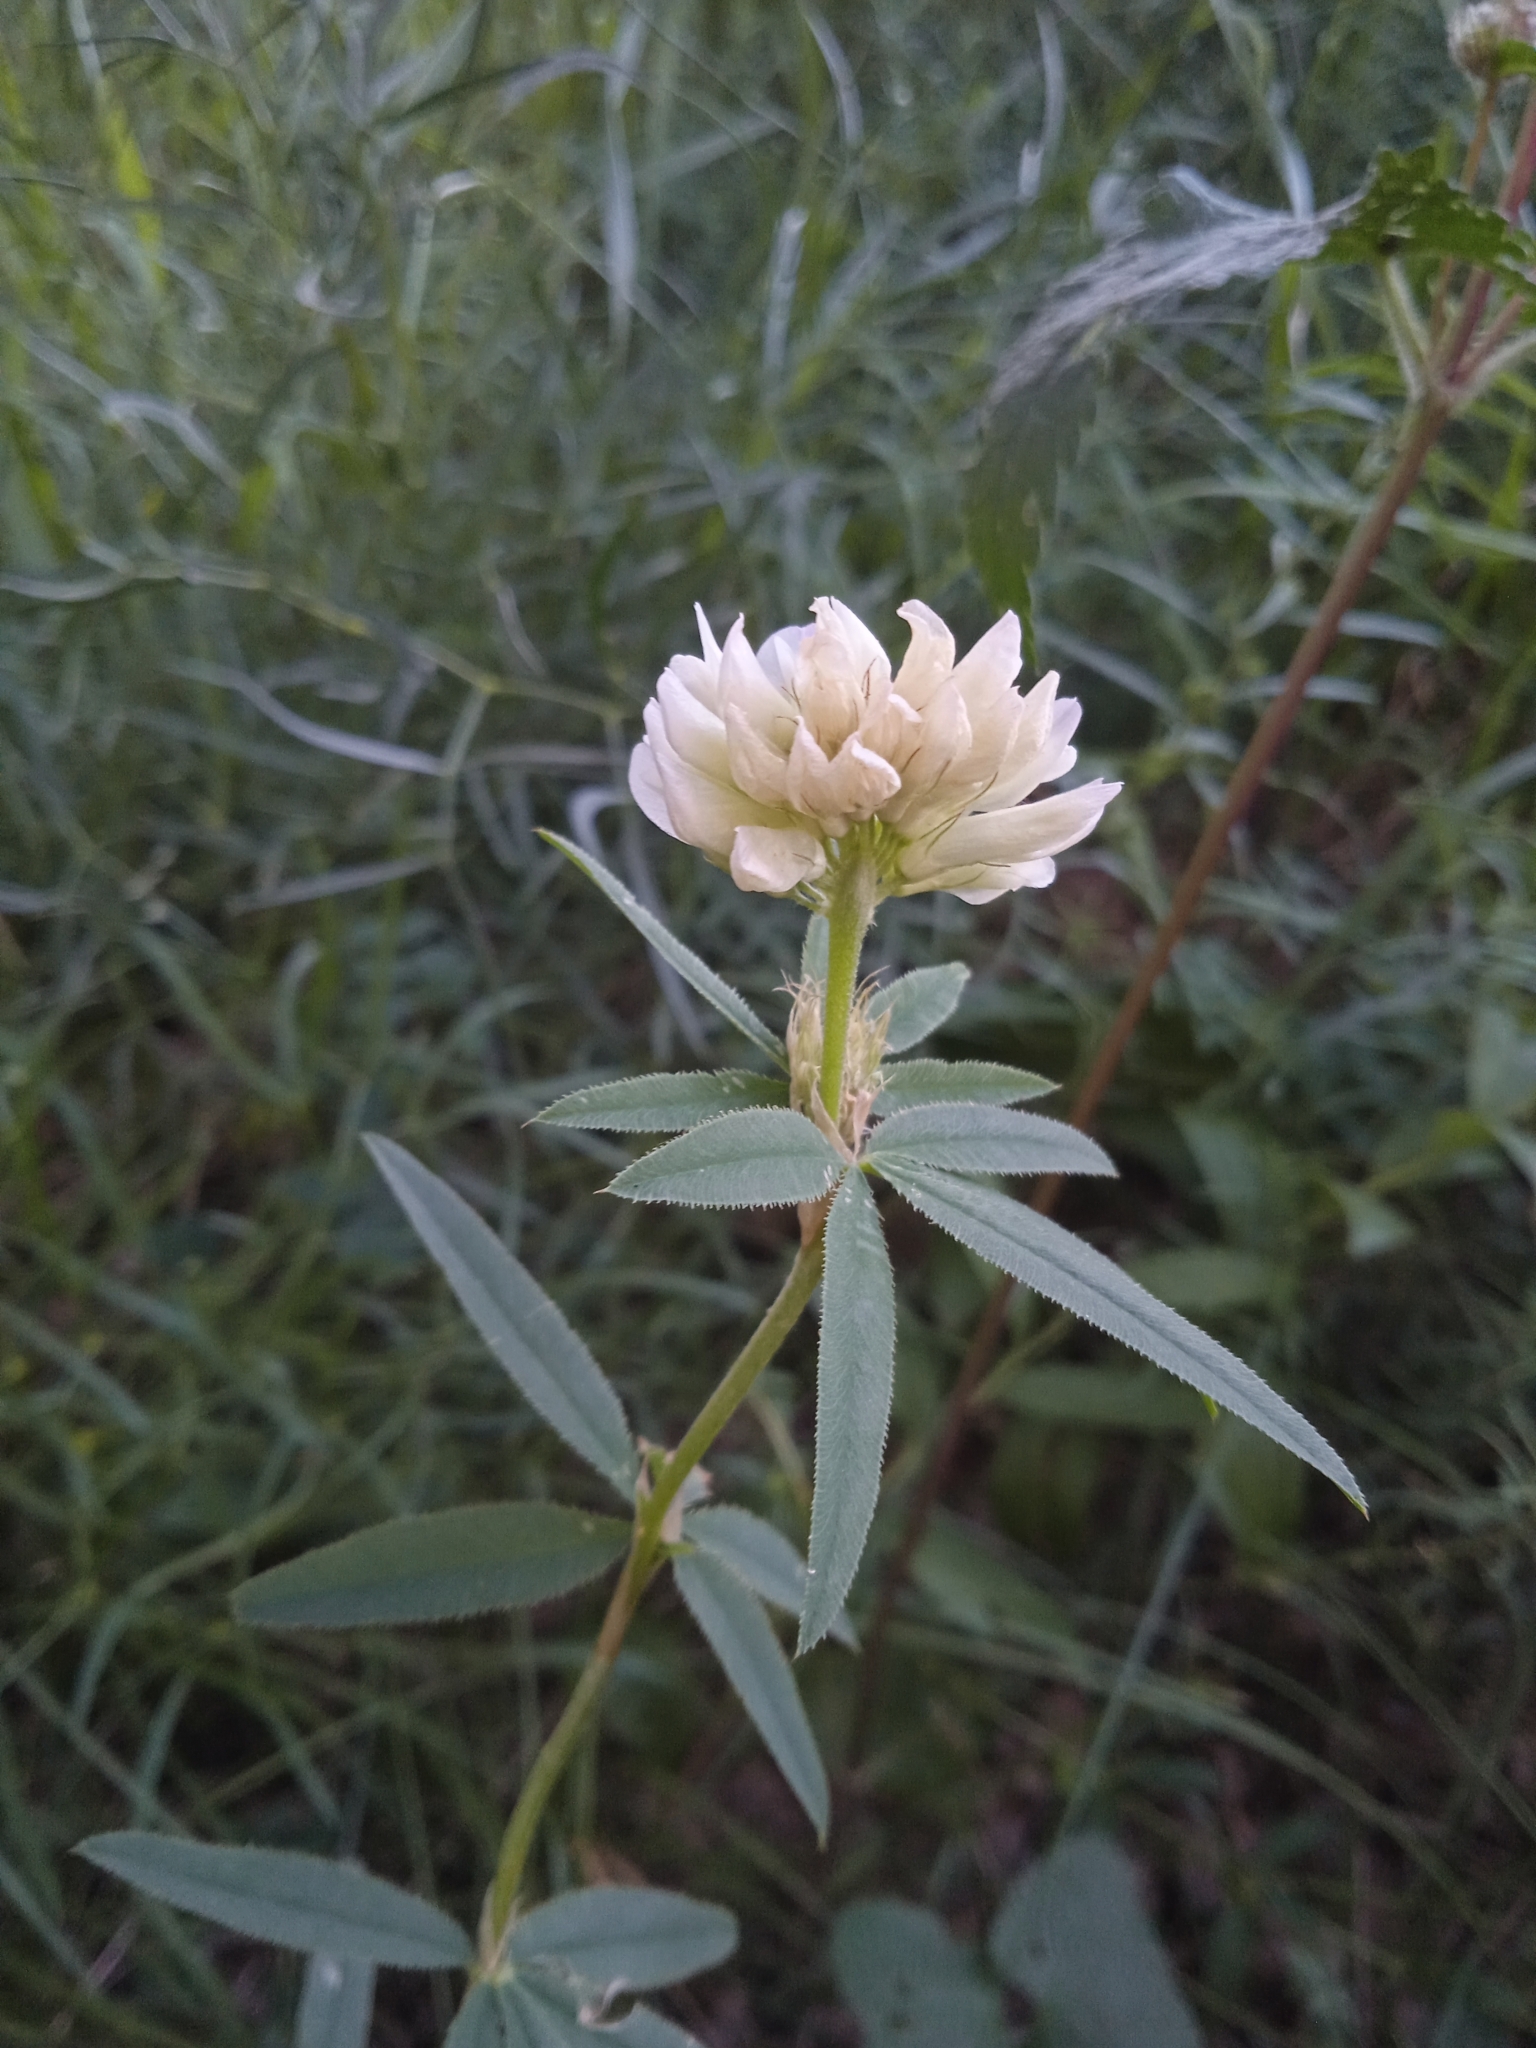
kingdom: Plantae
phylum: Tracheophyta
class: Magnoliopsida
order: Fabales
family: Fabaceae
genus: Trifolium
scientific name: Trifolium lupinaster
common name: Lupine clover
